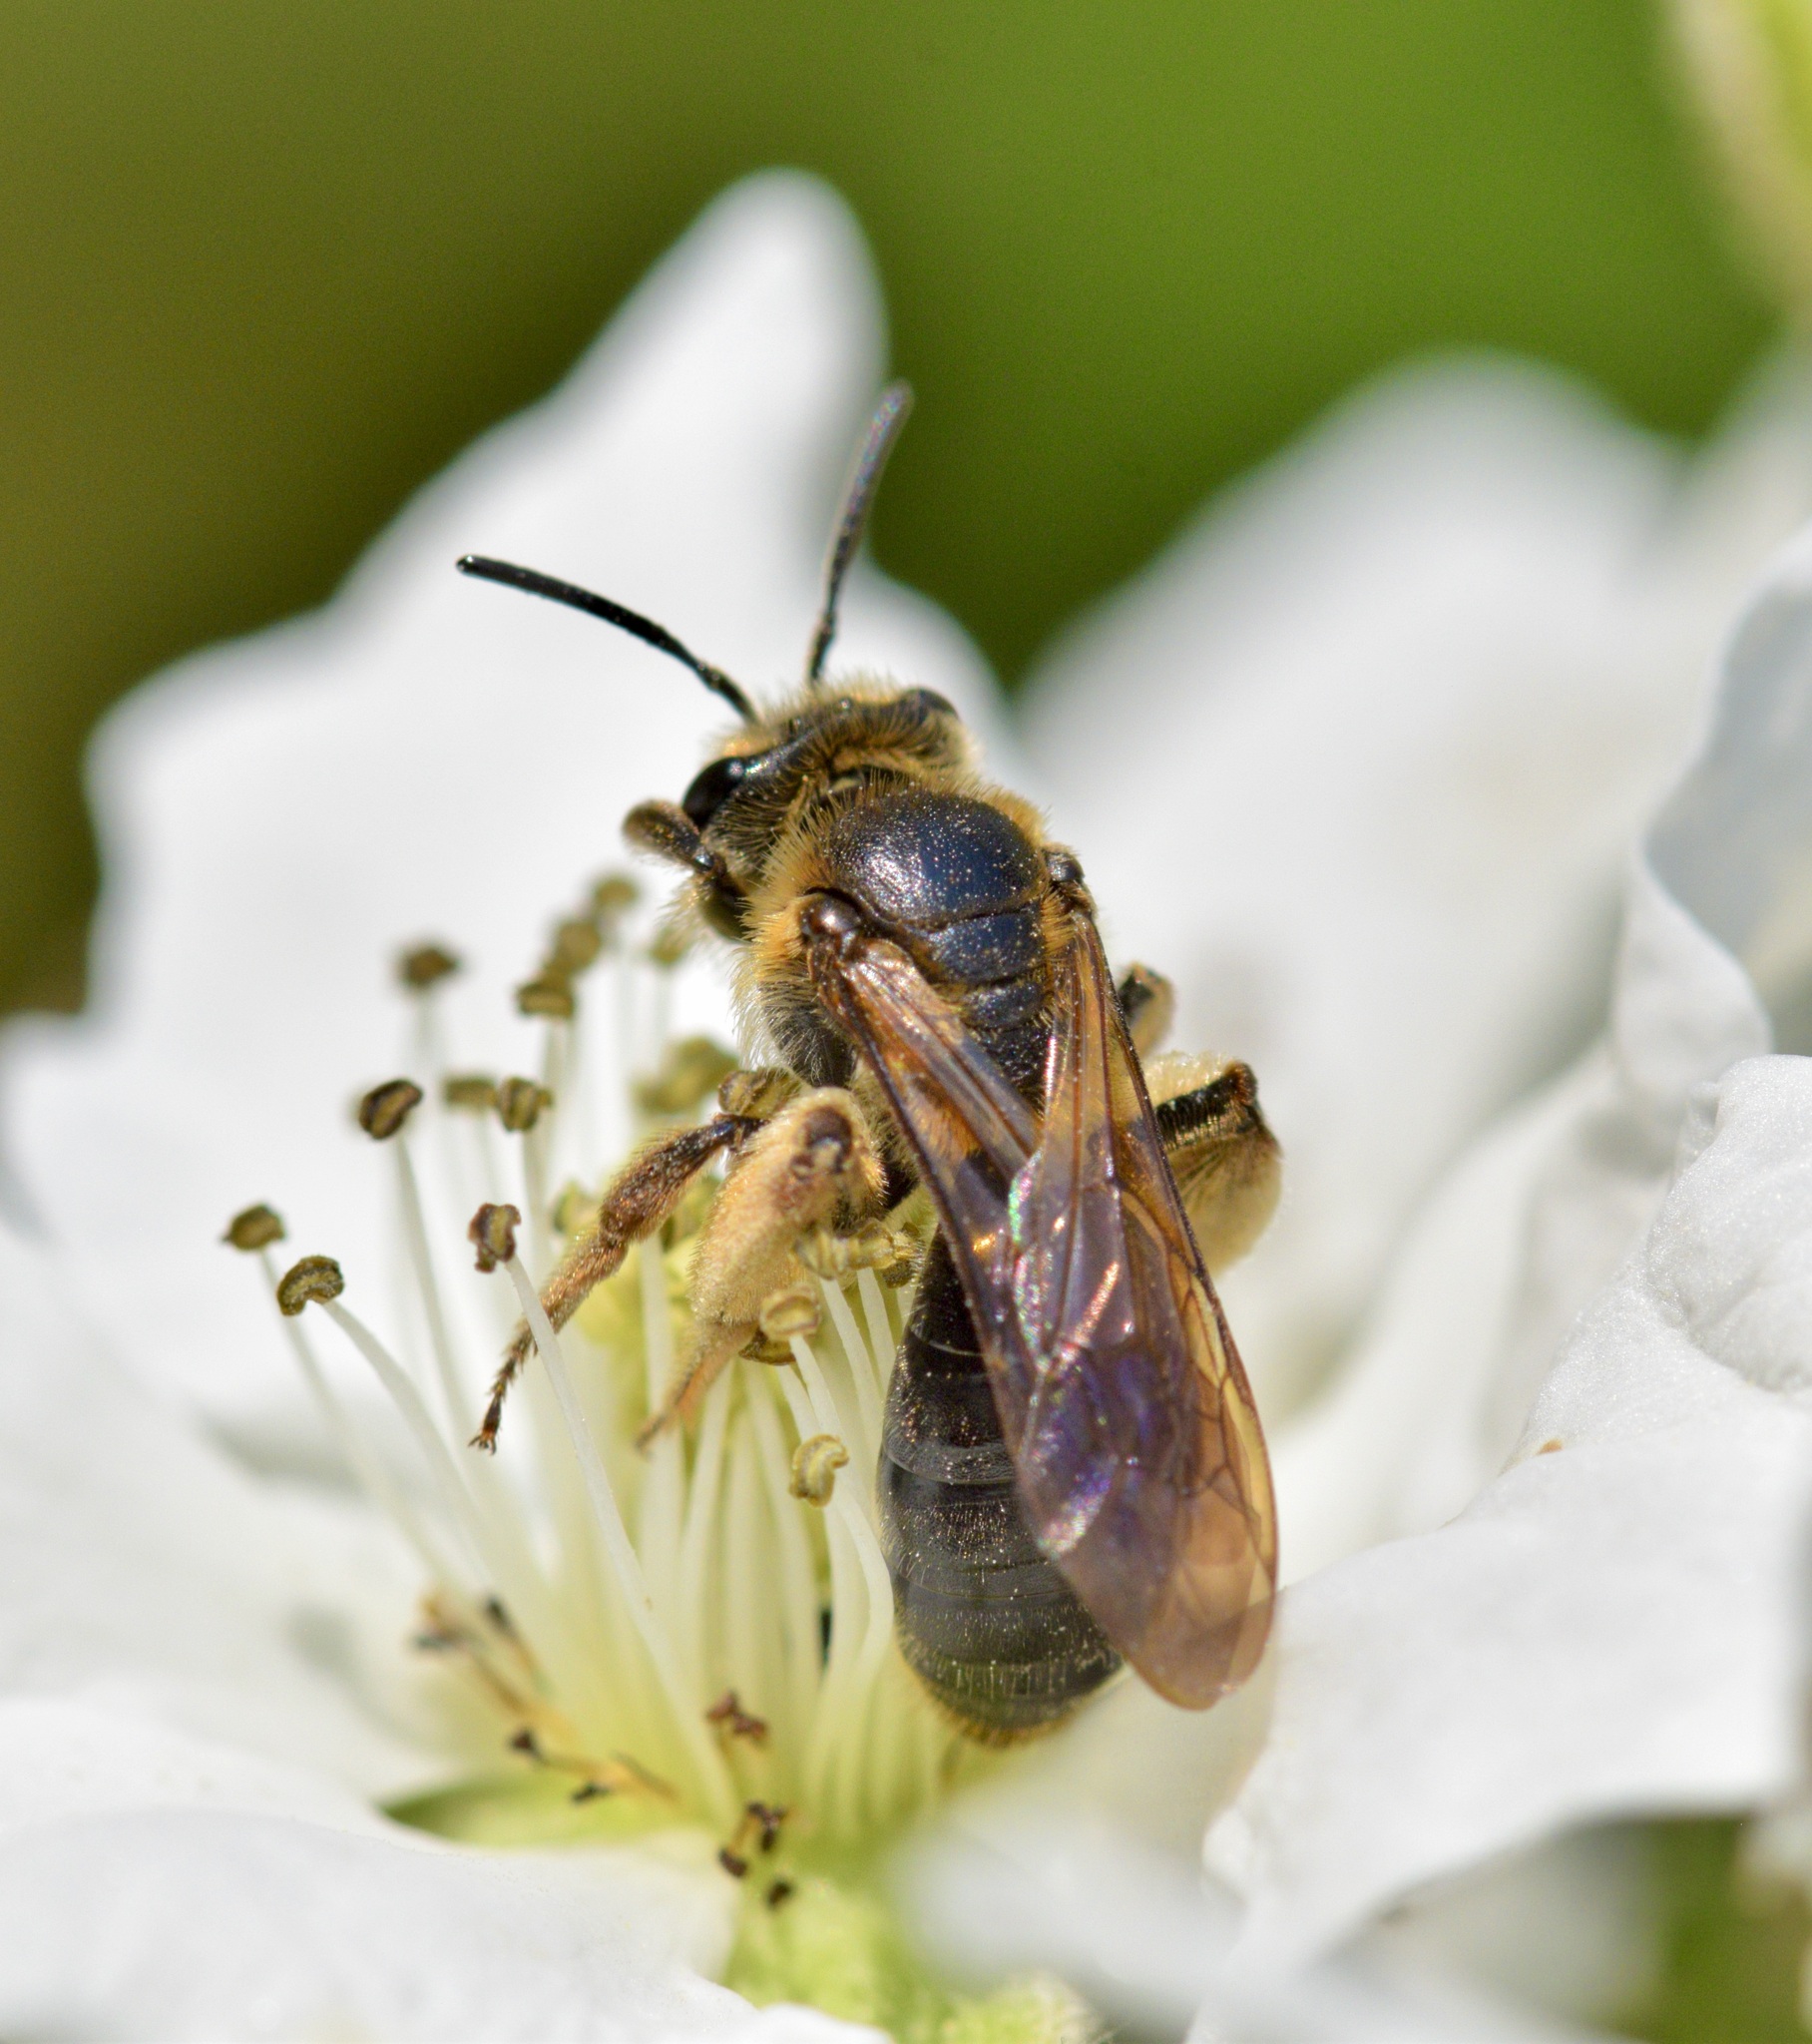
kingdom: Animalia
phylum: Arthropoda
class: Insecta
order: Hymenoptera
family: Andrenidae
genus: Andrena
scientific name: Andrena crataegi
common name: Hawthorn mining bee
